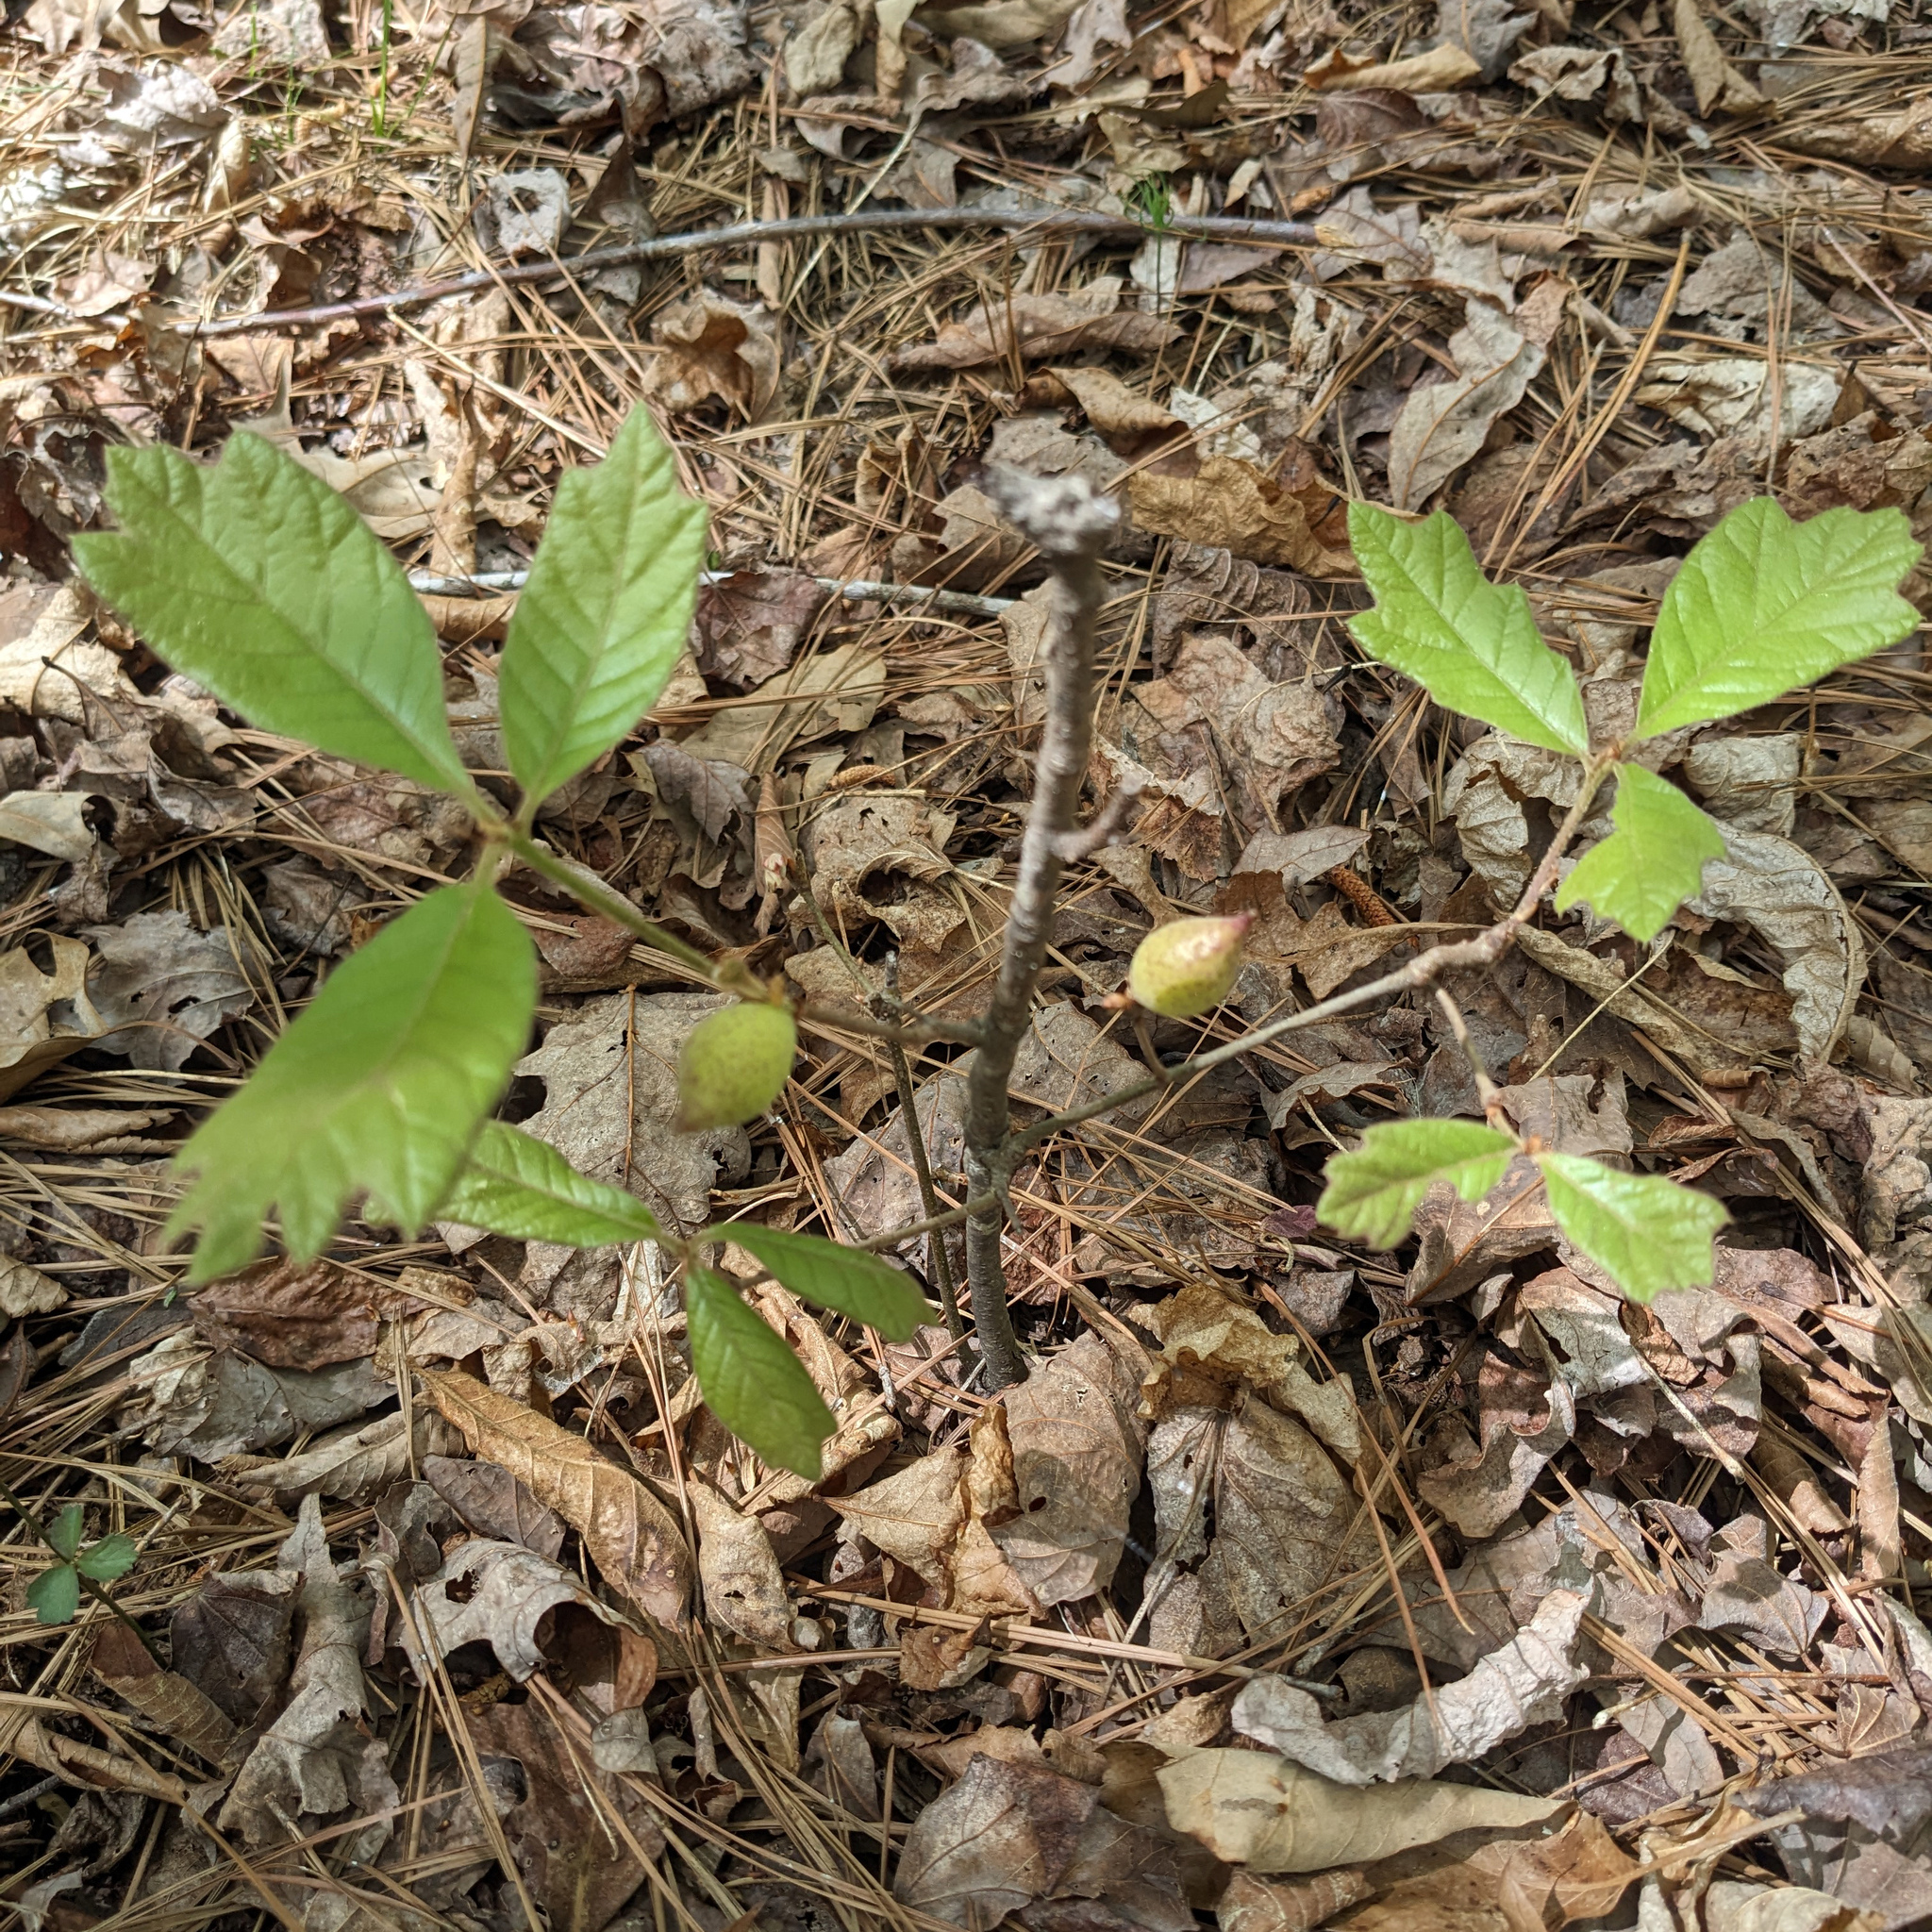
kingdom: Animalia
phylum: Arthropoda
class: Insecta
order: Hymenoptera
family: Cynipidae
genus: Amphibolips
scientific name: Amphibolips
